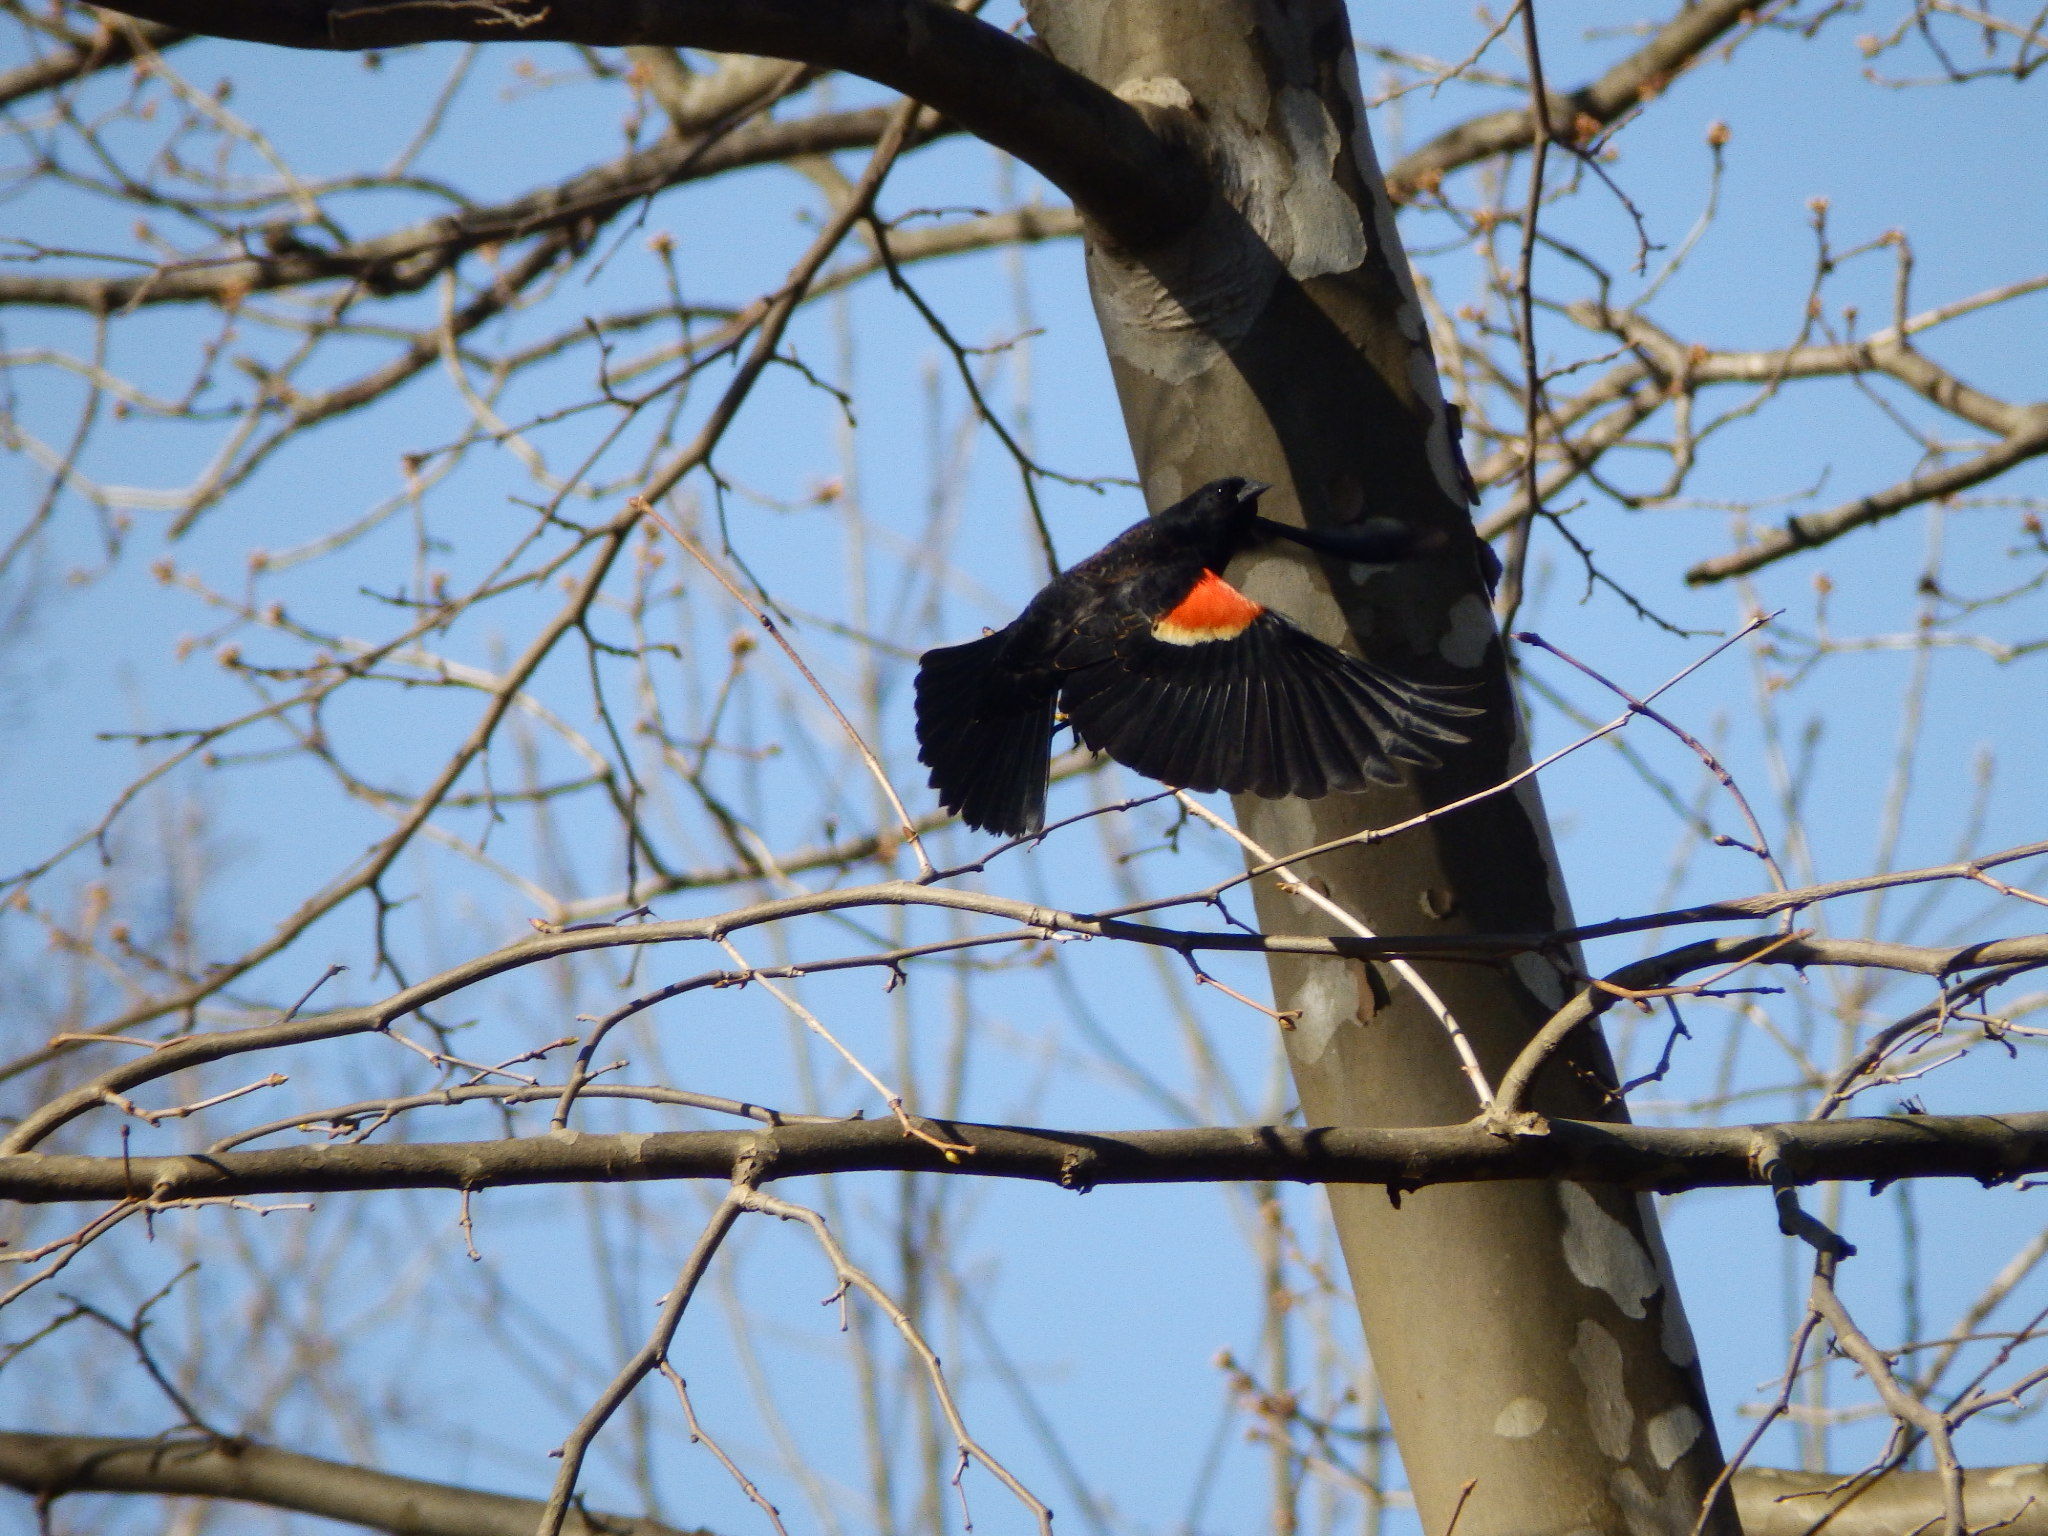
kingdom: Animalia
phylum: Chordata
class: Aves
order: Passeriformes
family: Icteridae
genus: Agelaius
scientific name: Agelaius phoeniceus
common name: Red-winged blackbird
